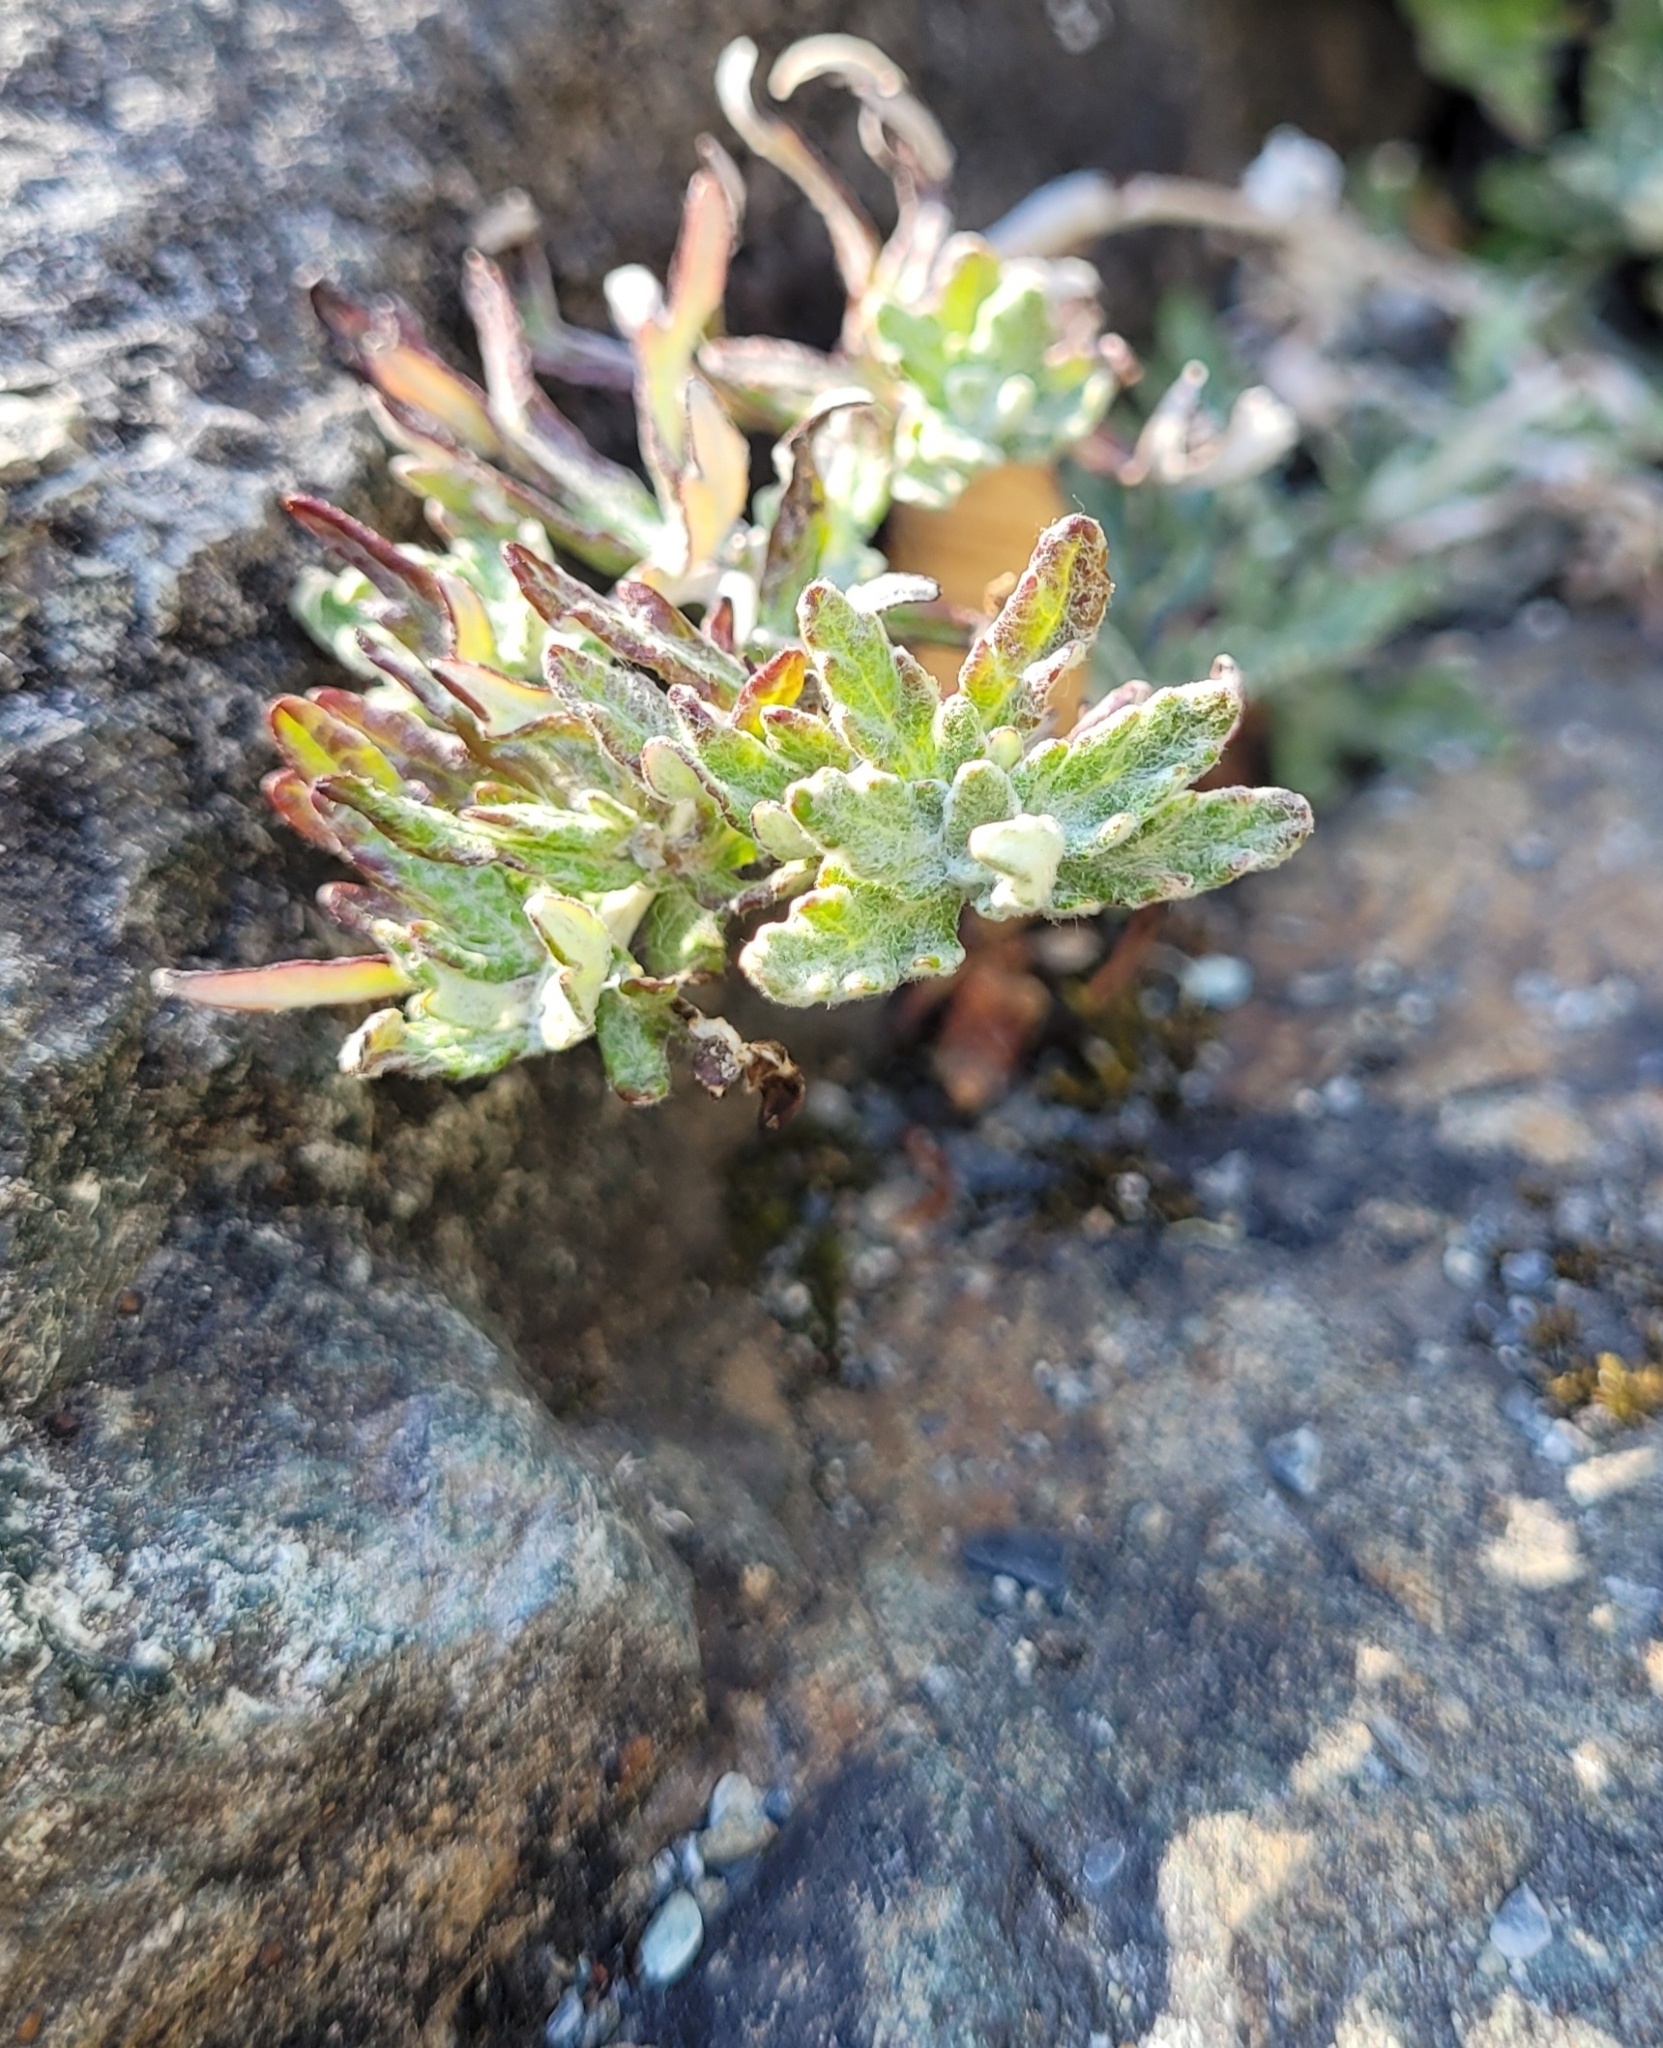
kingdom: Plantae
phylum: Tracheophyta
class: Magnoliopsida
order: Asterales
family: Asteraceae
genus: Eriophyllum
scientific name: Eriophyllum lanatum
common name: Common woolly-sunflower
